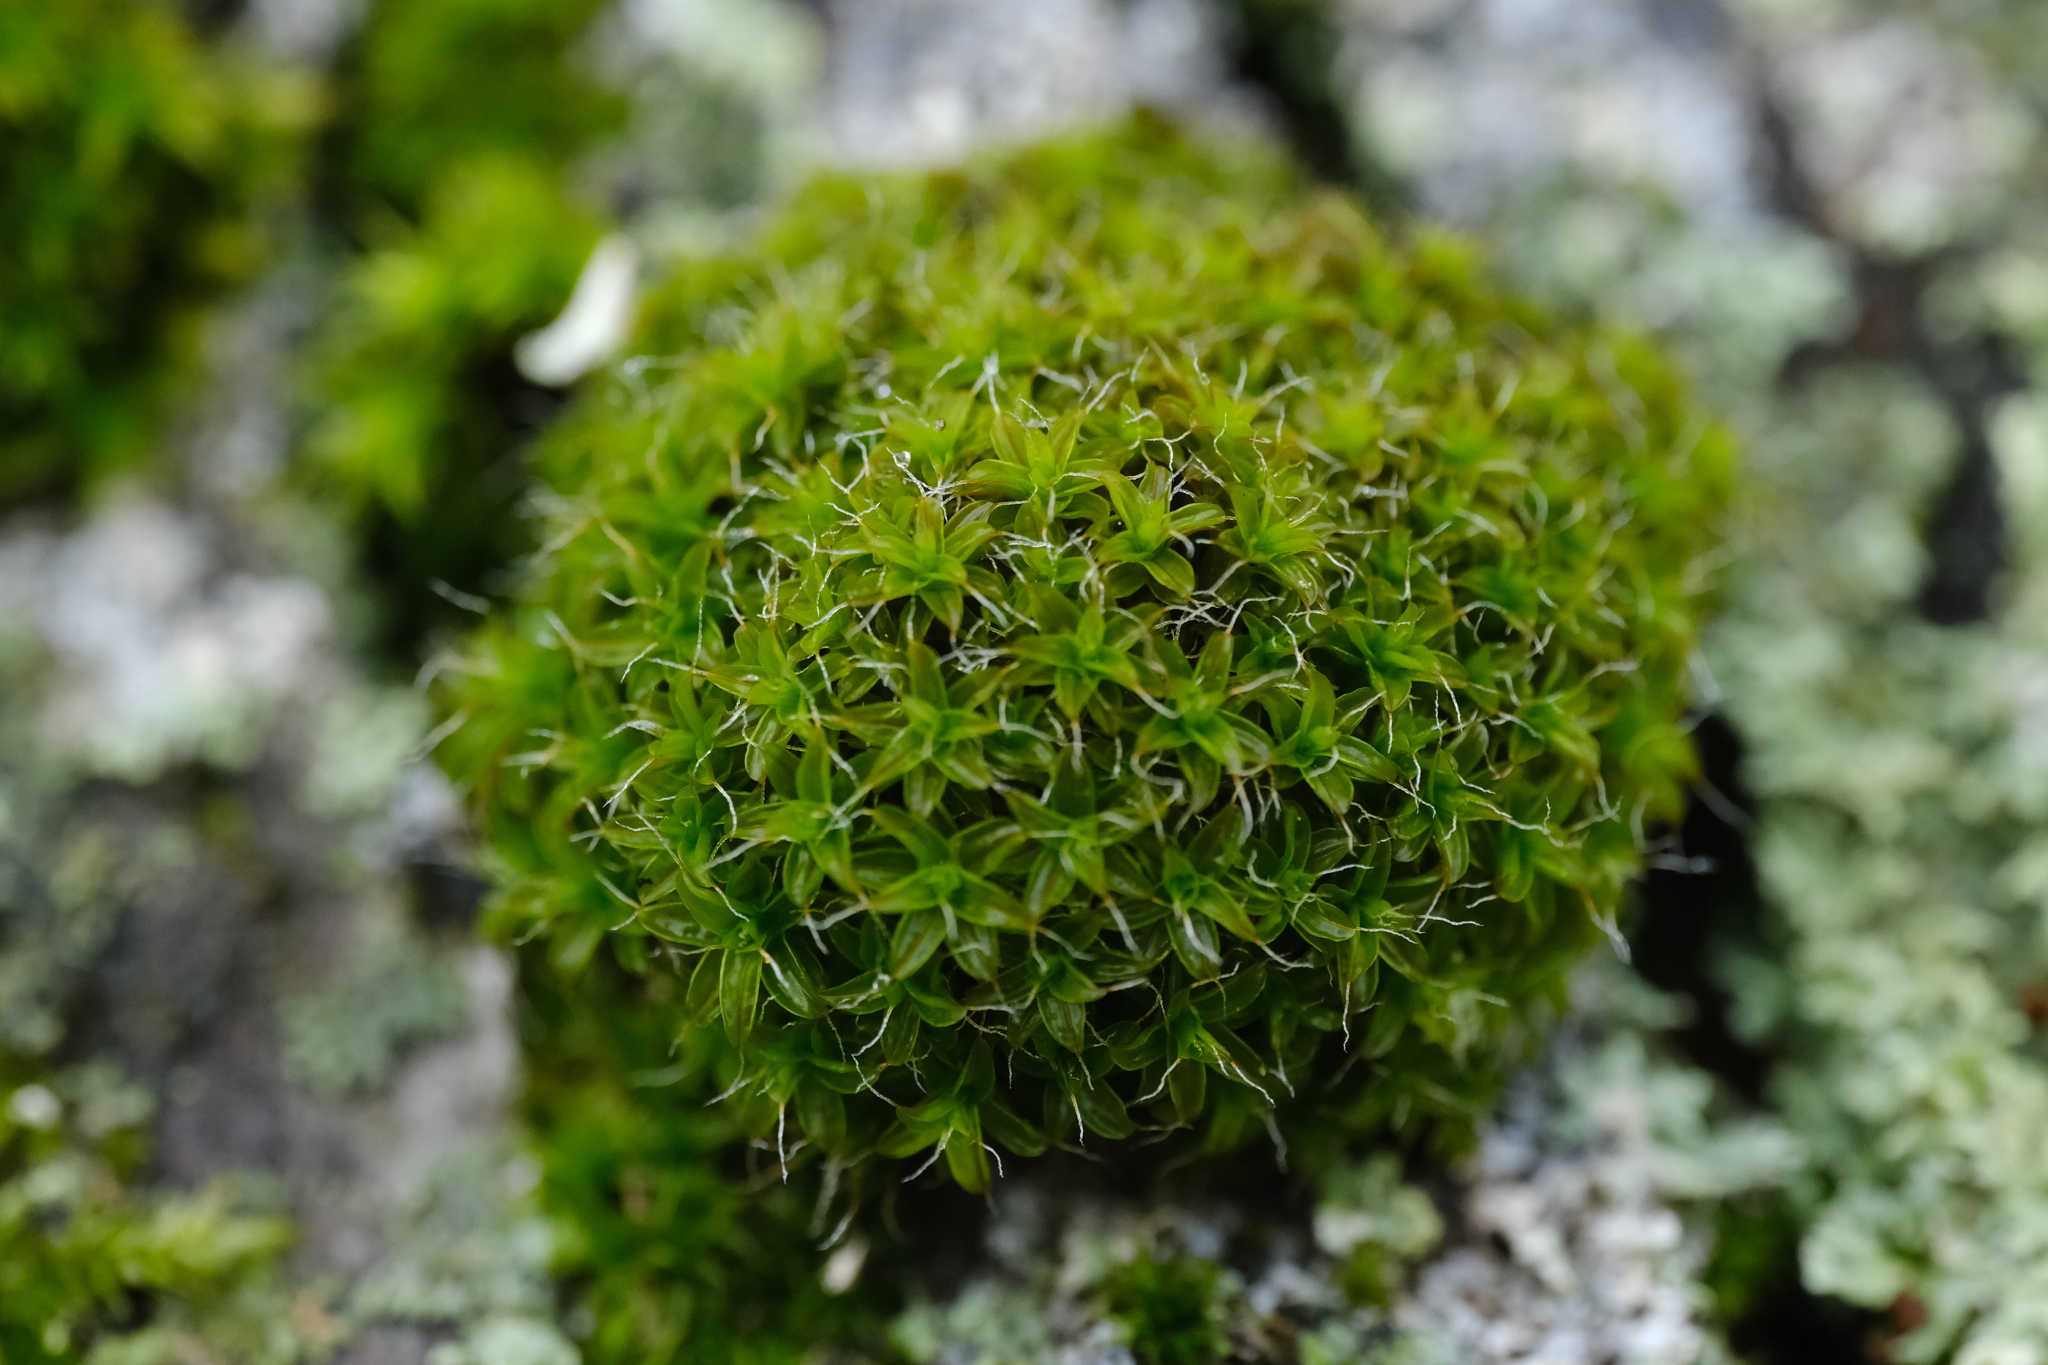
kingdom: Plantae
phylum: Bryophyta
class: Bryopsida
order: Pottiales
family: Pottiaceae
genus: Syntrichia
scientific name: Syntrichia ruralis
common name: Sidewalk screw moss
